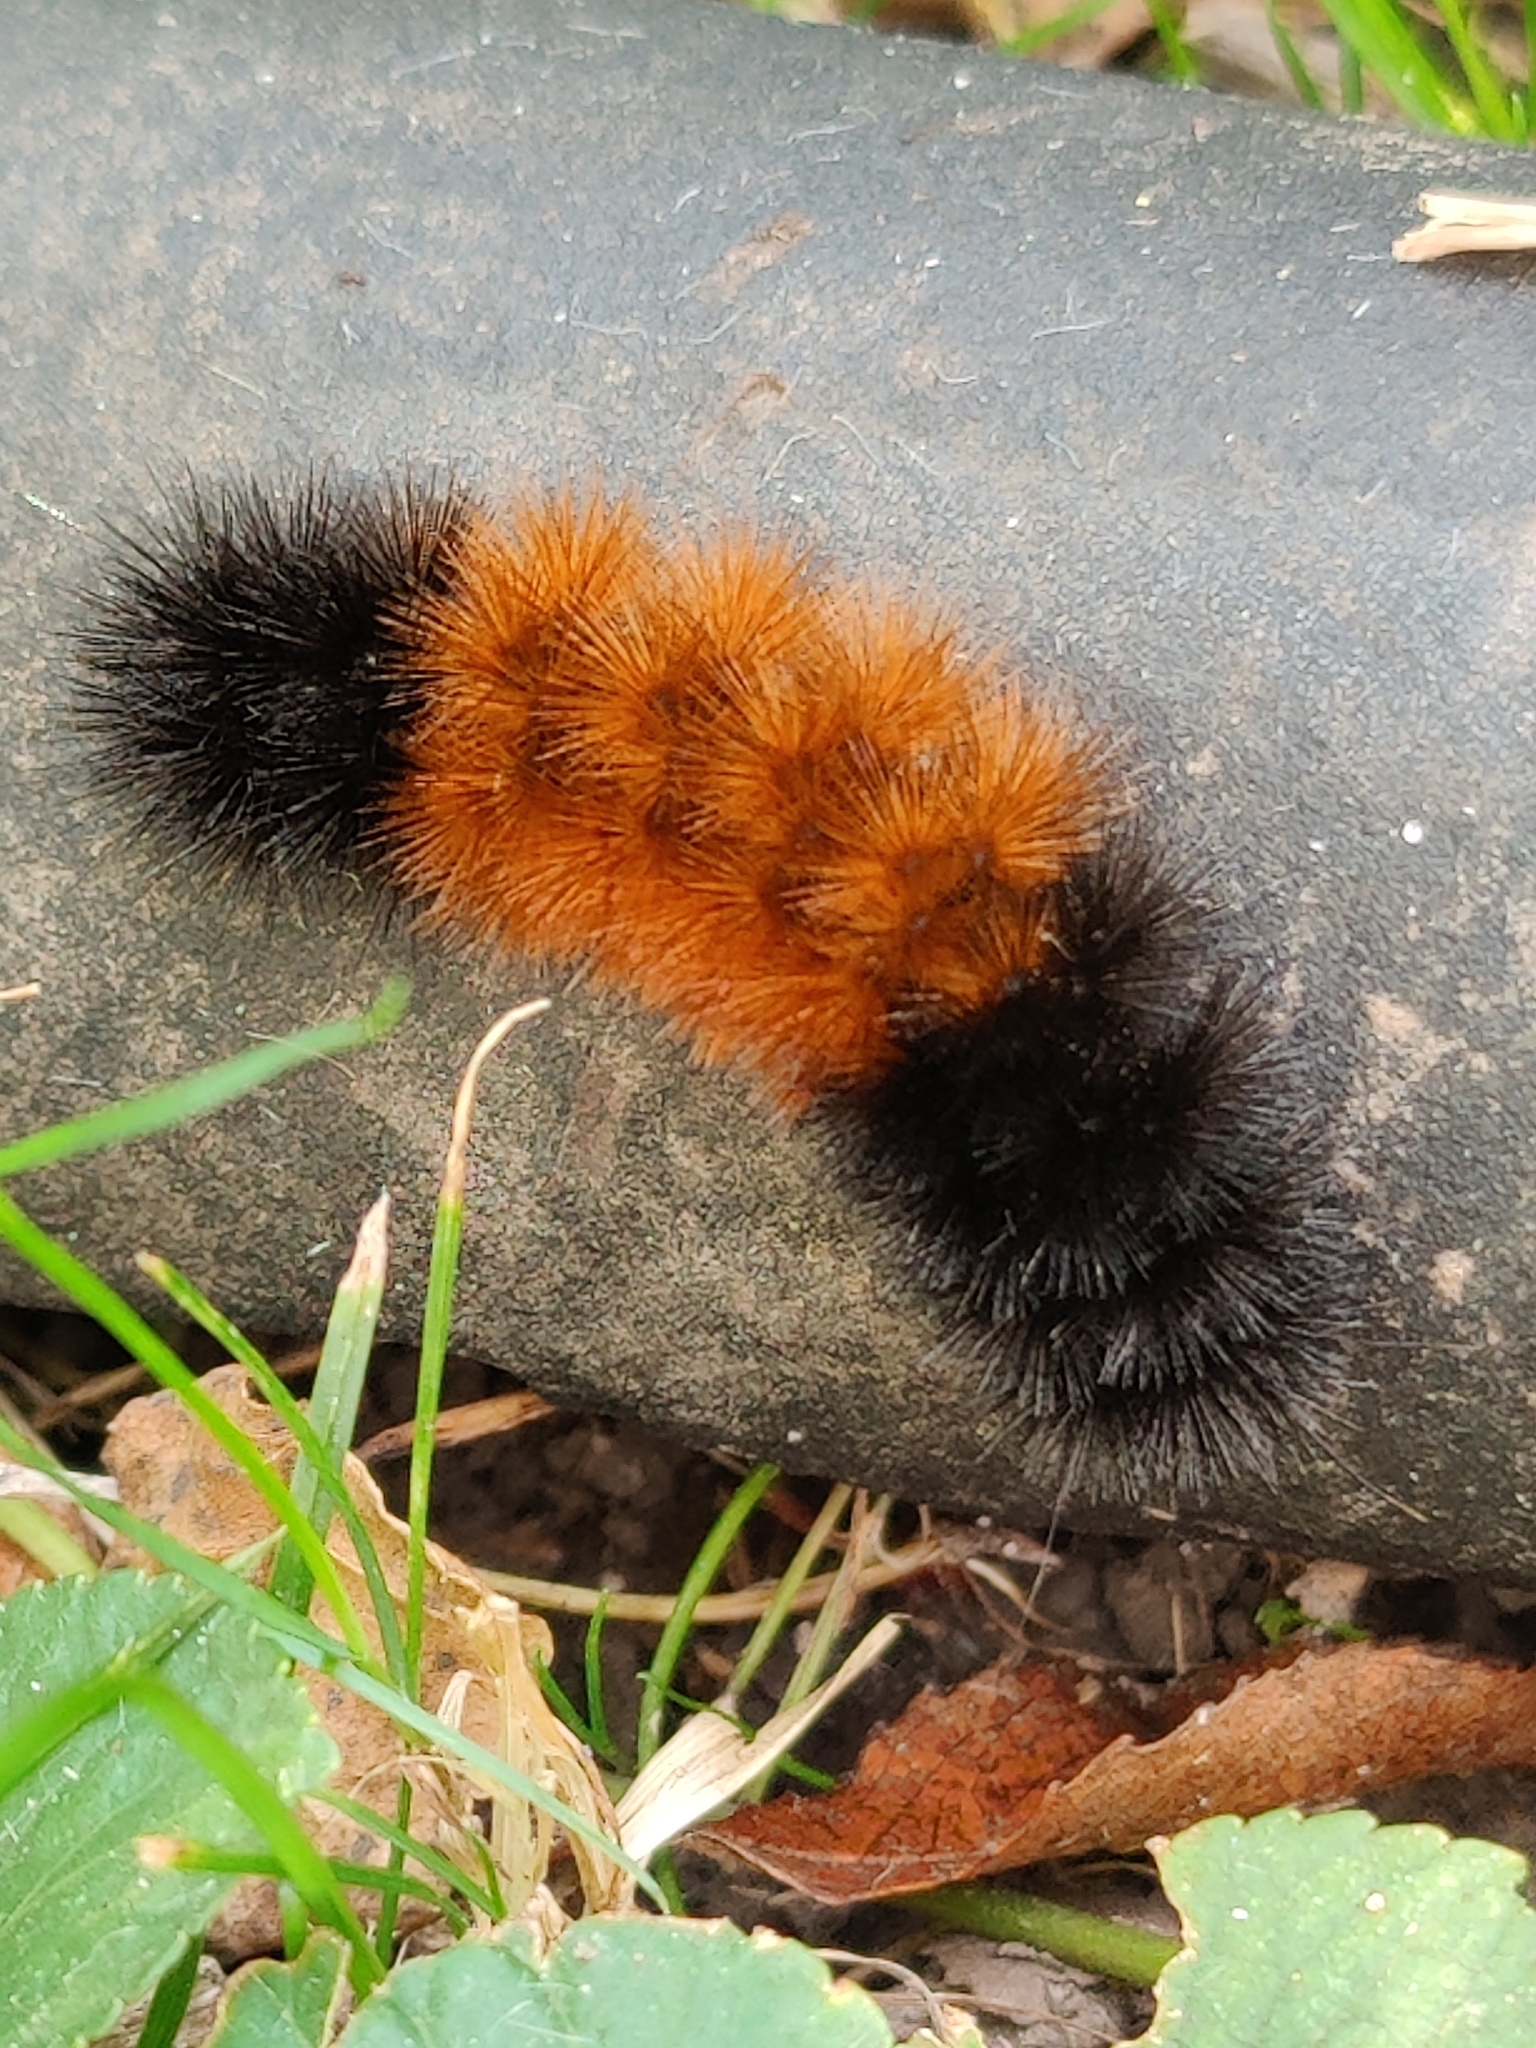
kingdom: Animalia
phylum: Arthropoda
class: Insecta
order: Lepidoptera
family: Erebidae
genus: Pyrrharctia
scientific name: Pyrrharctia isabella
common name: Isabella tiger moth
